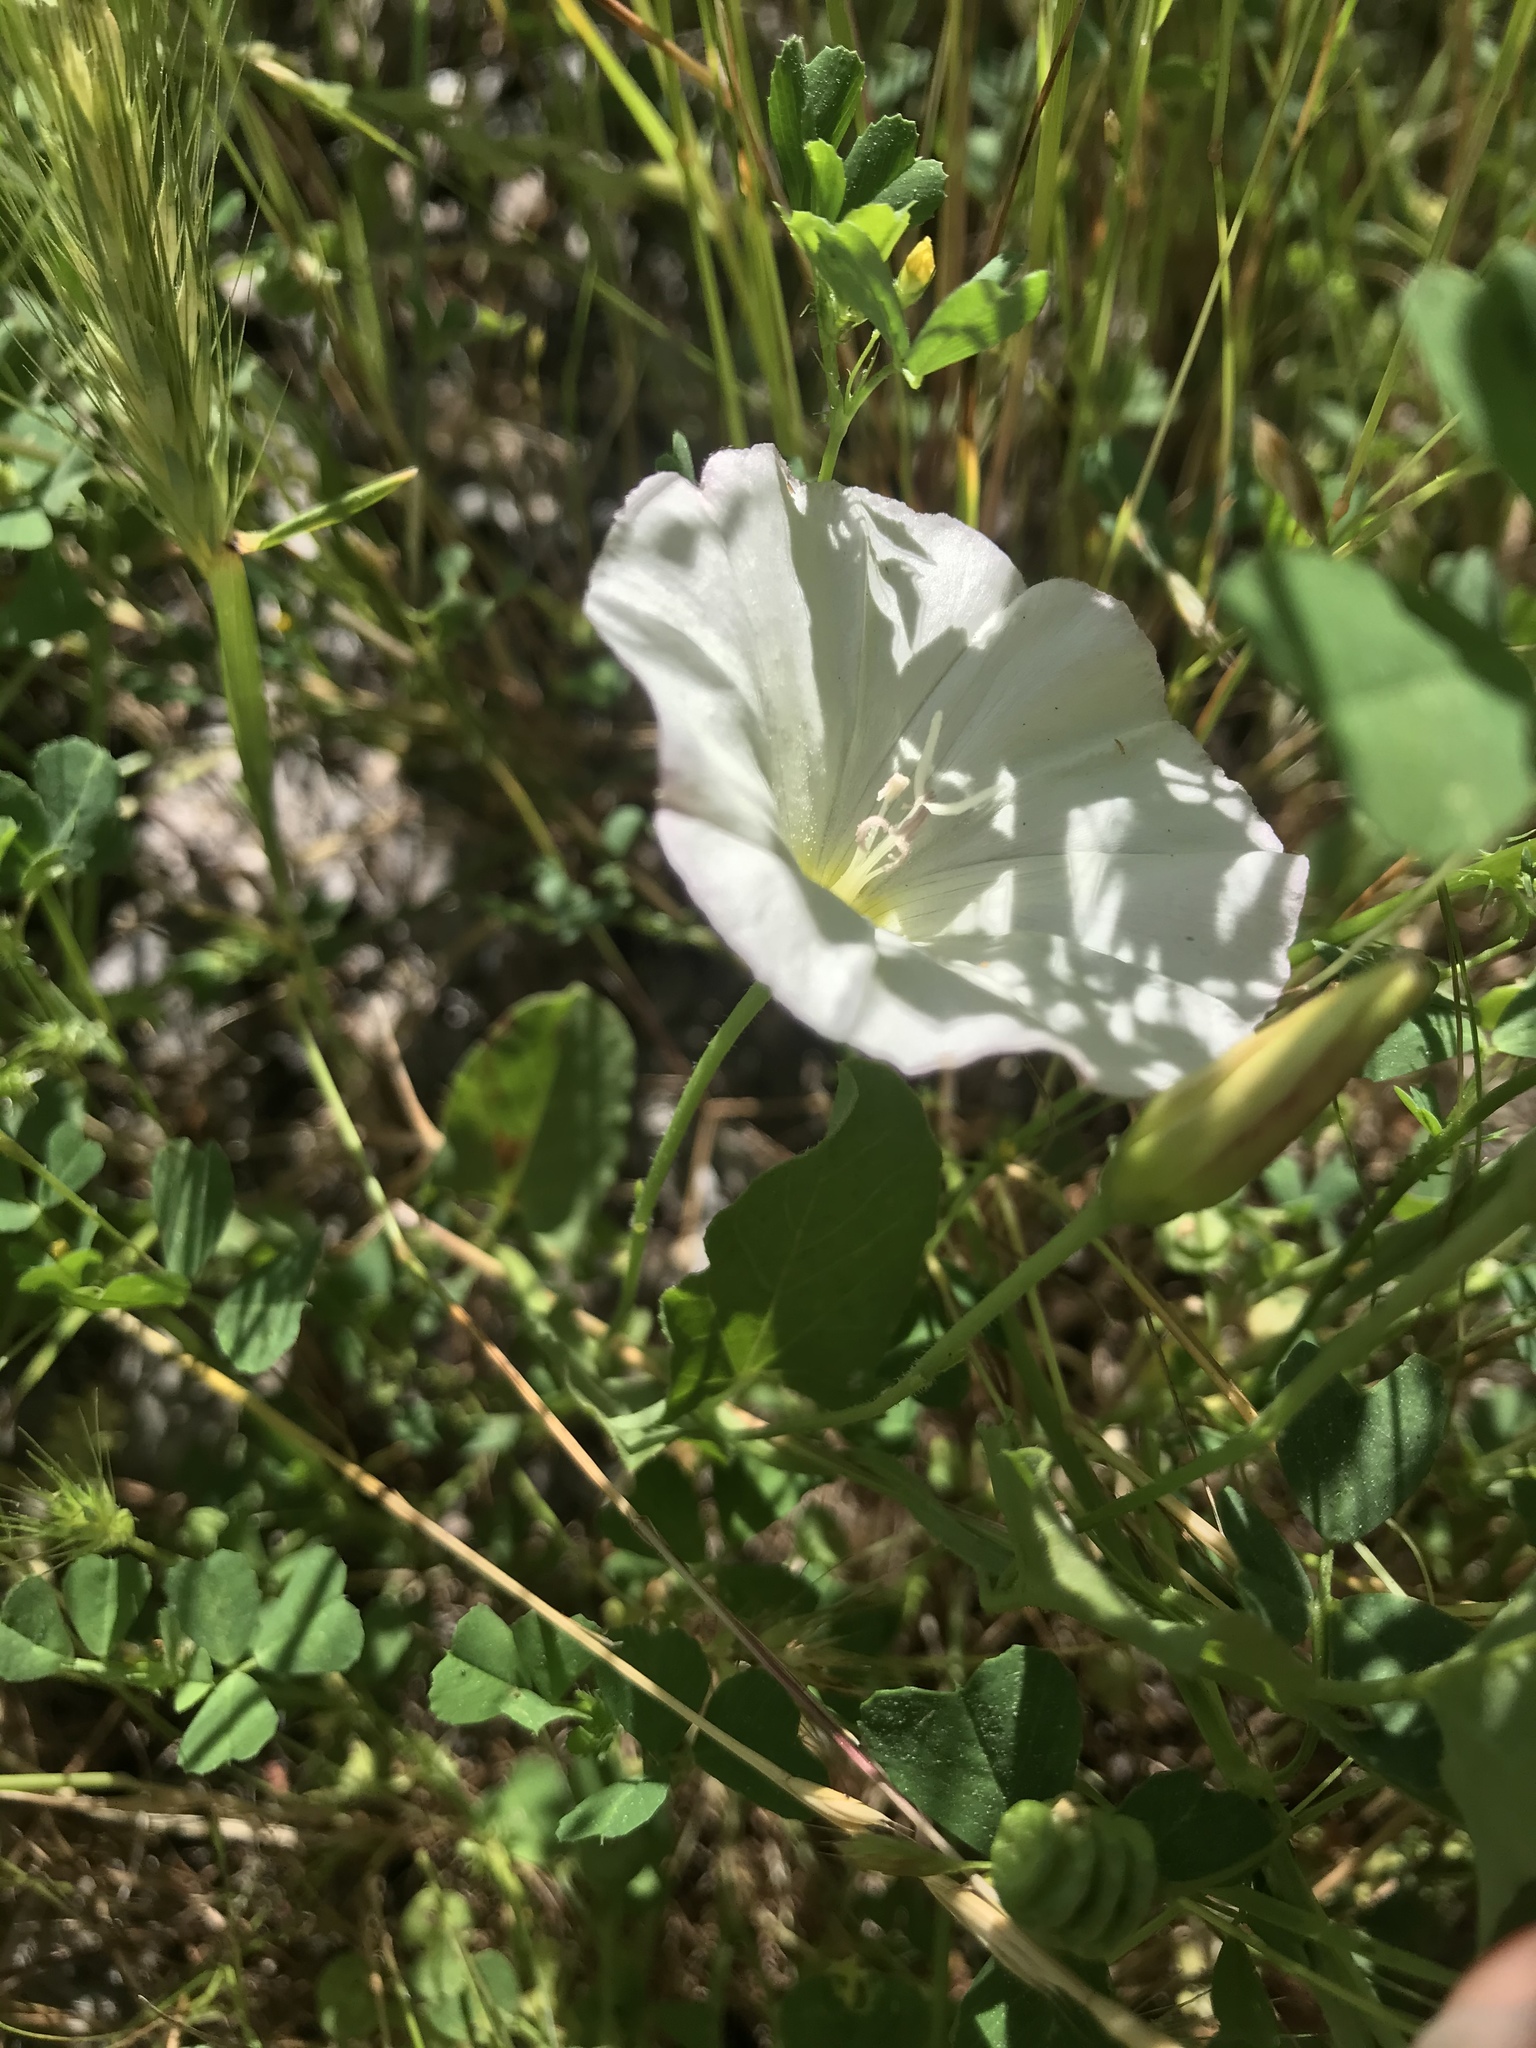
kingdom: Plantae
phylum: Tracheophyta
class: Magnoliopsida
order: Solanales
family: Convolvulaceae
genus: Convolvulus
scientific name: Convolvulus arvensis
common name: Field bindweed
